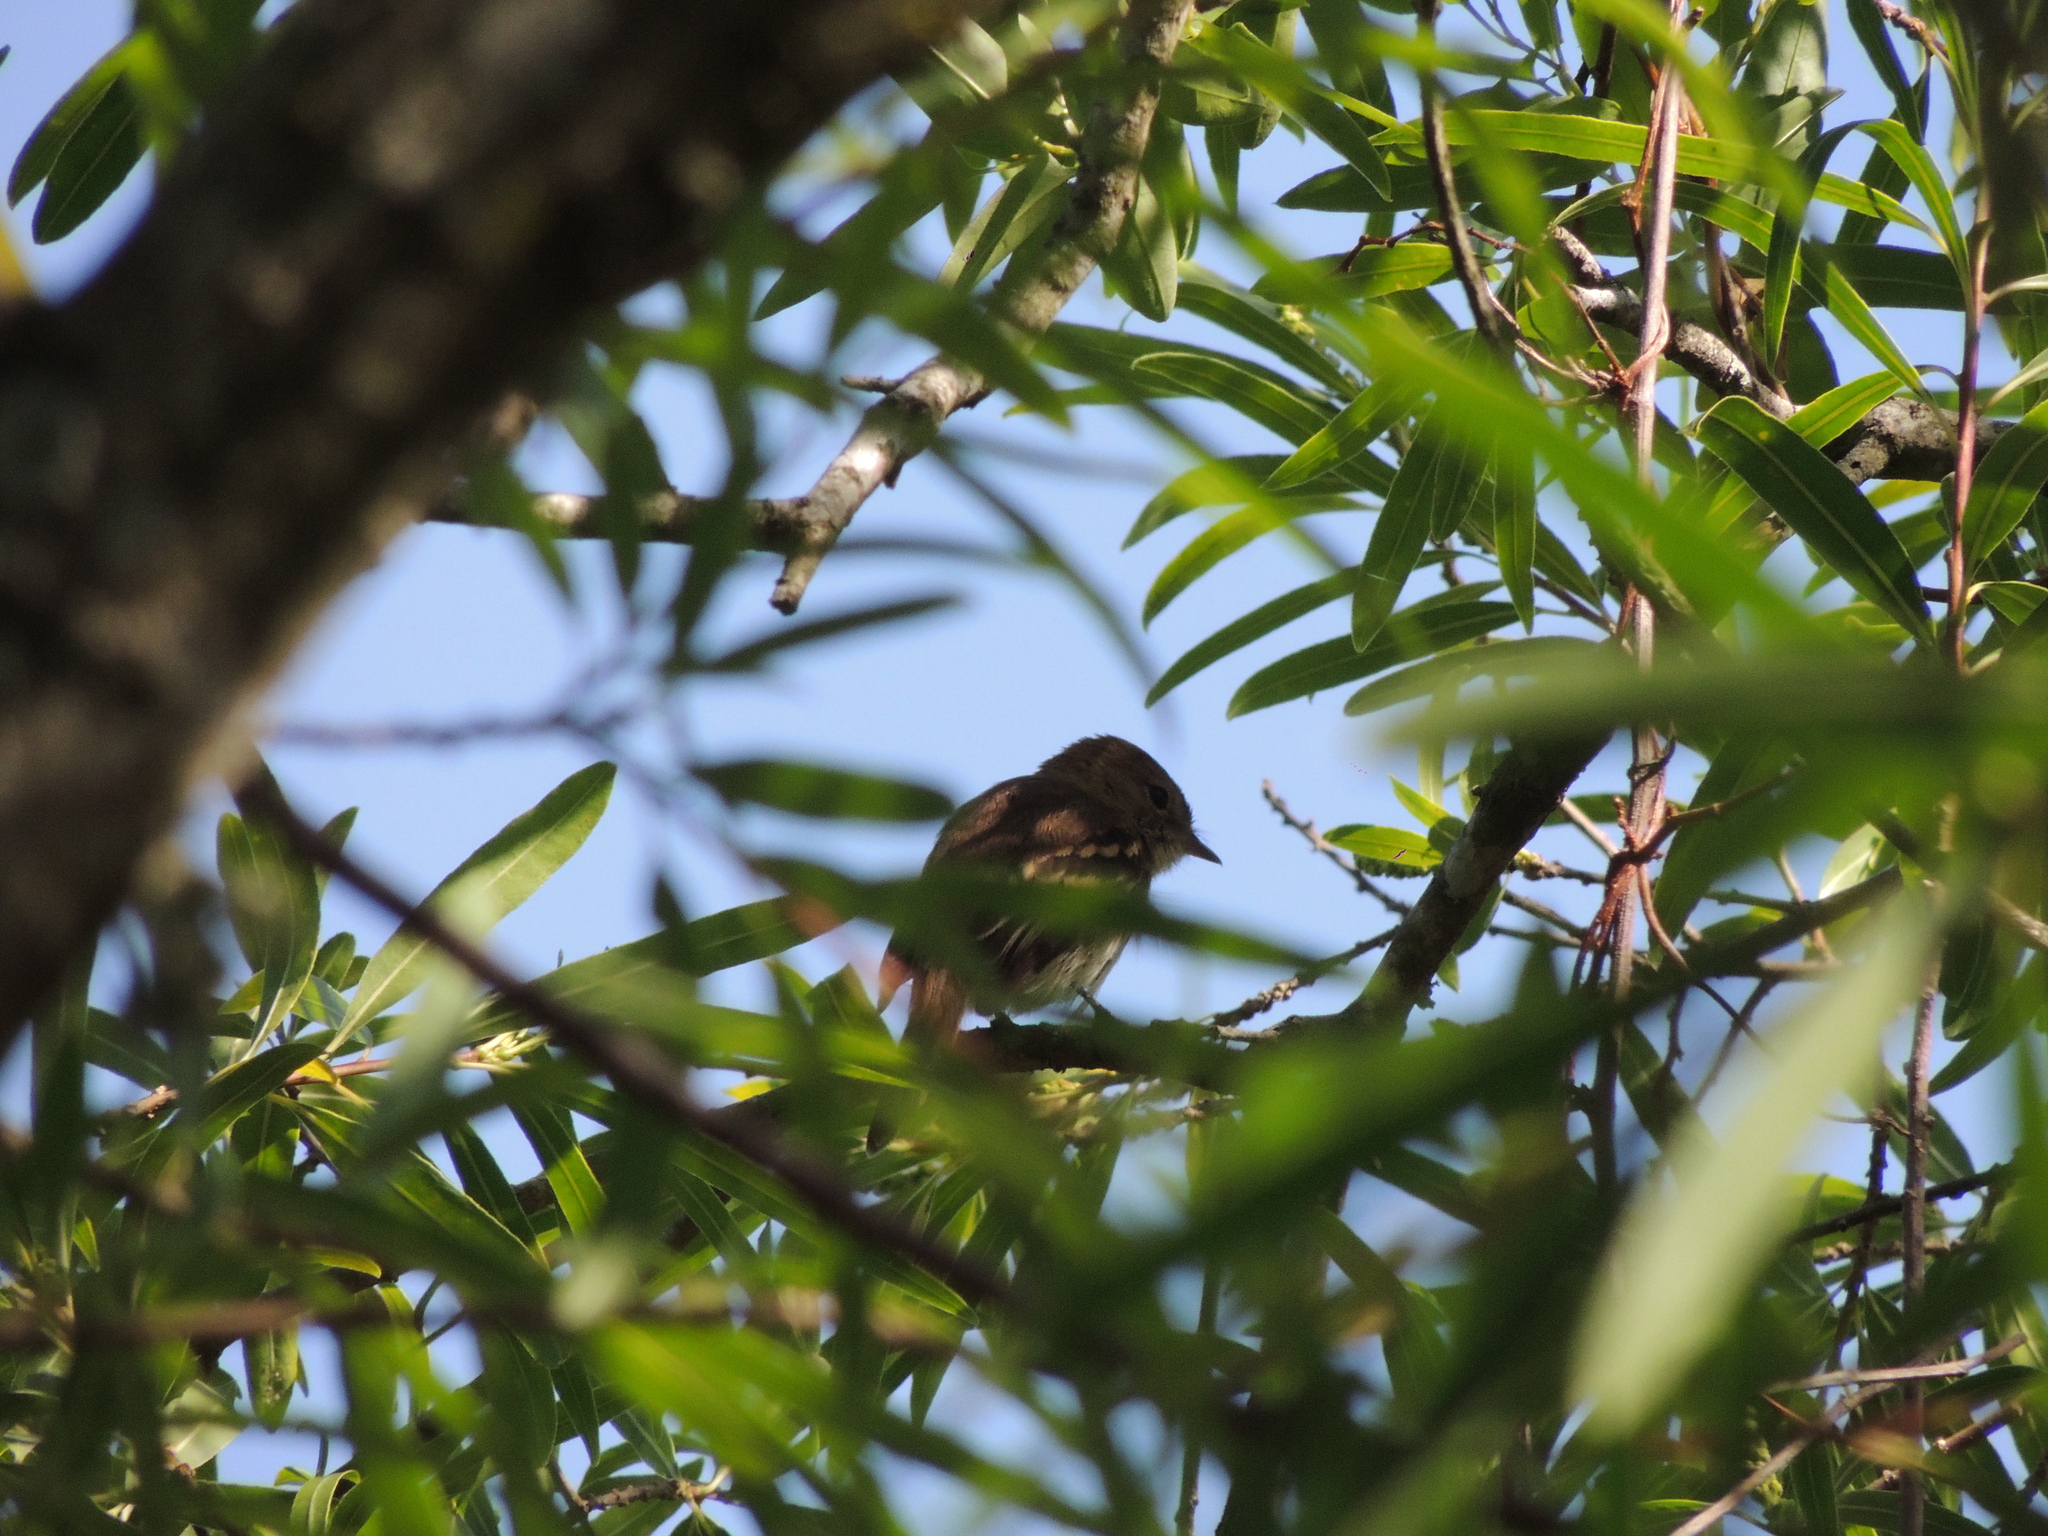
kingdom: Animalia
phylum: Chordata
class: Aves
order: Passeriformes
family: Tyrannidae
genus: Myiophobus
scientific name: Myiophobus fasciatus
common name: Bran-colored flycatcher
